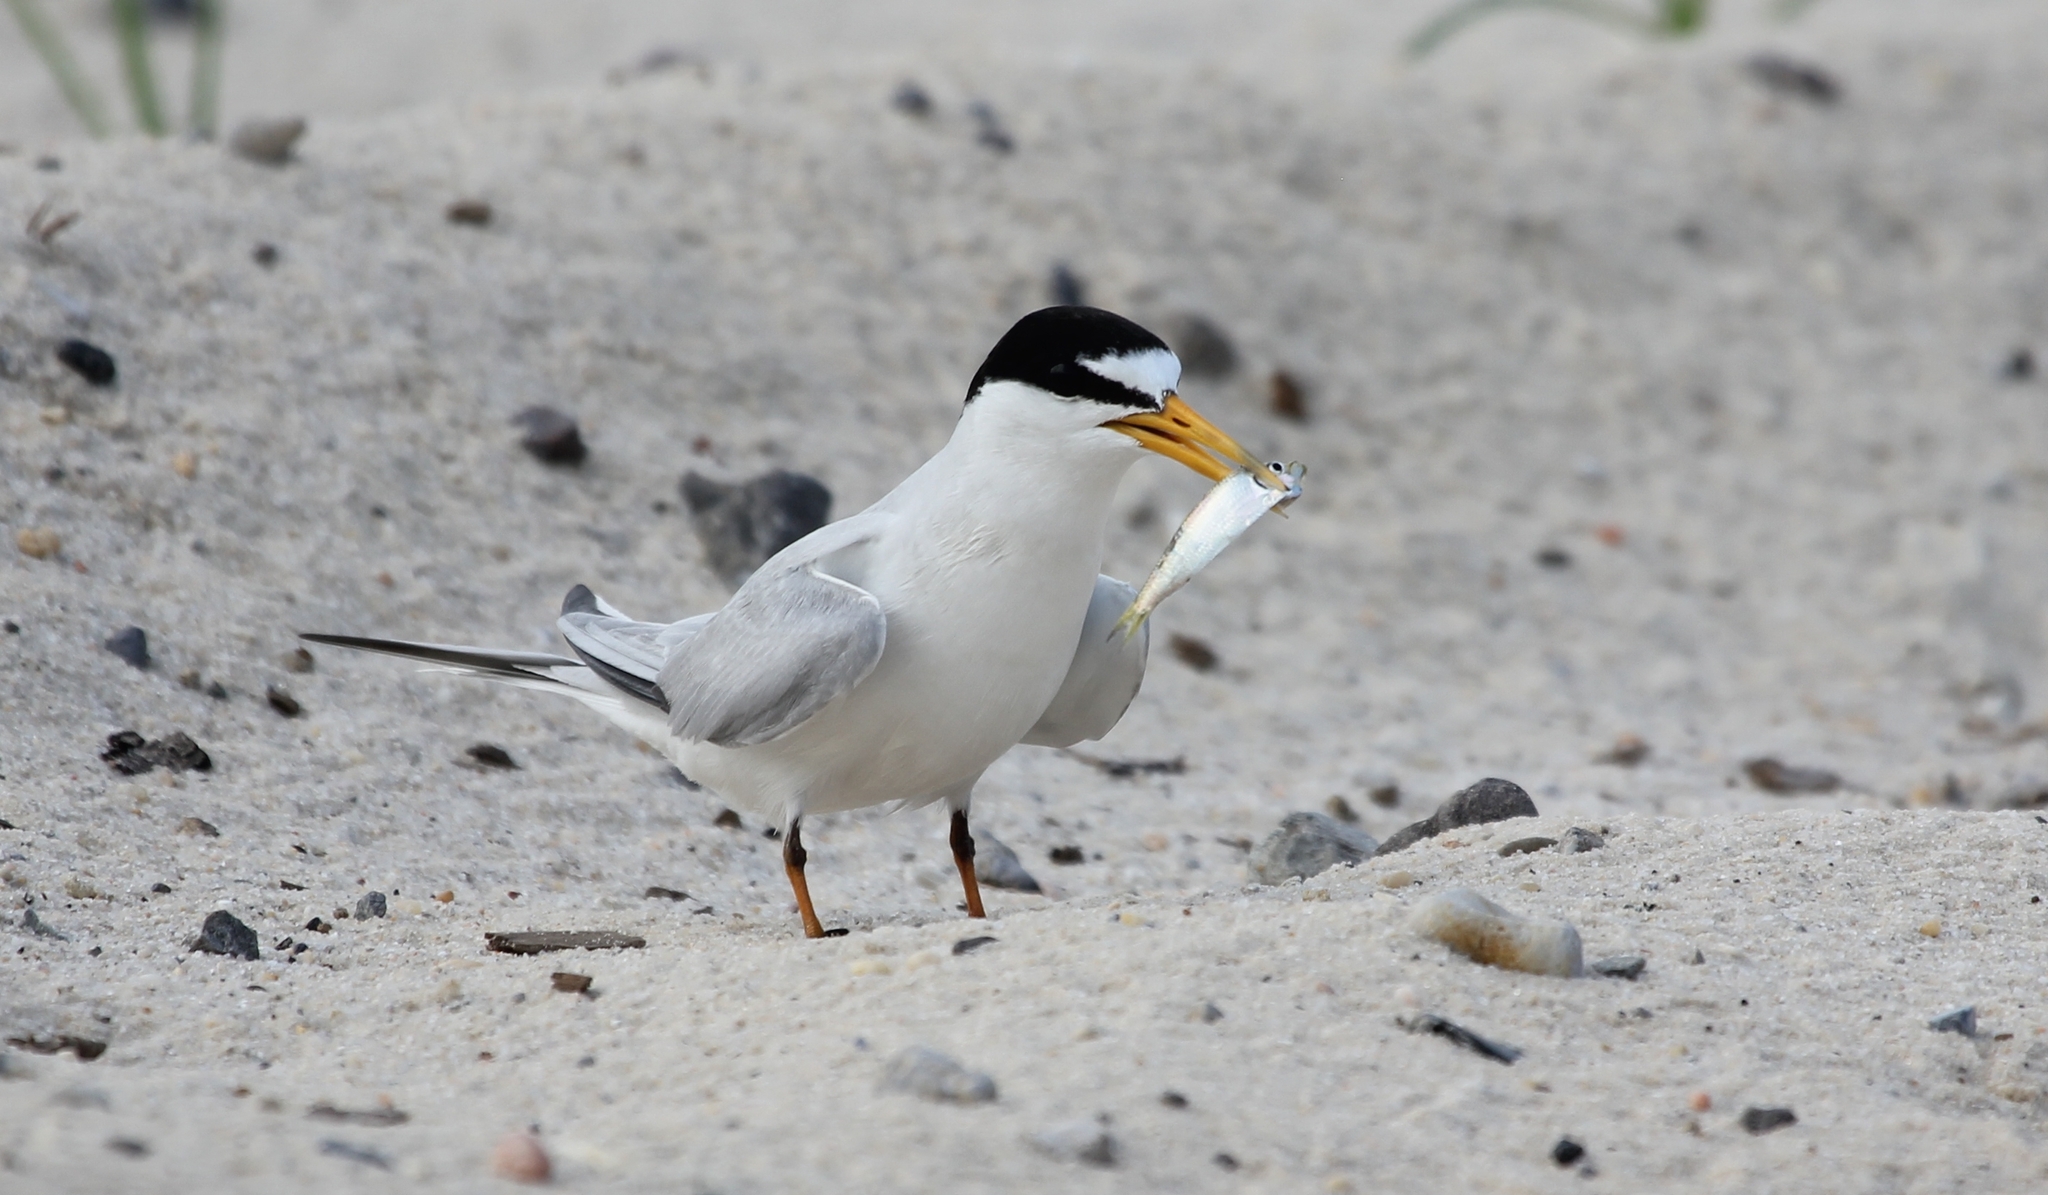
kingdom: Animalia
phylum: Chordata
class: Aves
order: Charadriiformes
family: Laridae
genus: Sternula
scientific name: Sternula antillarum
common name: Least tern
